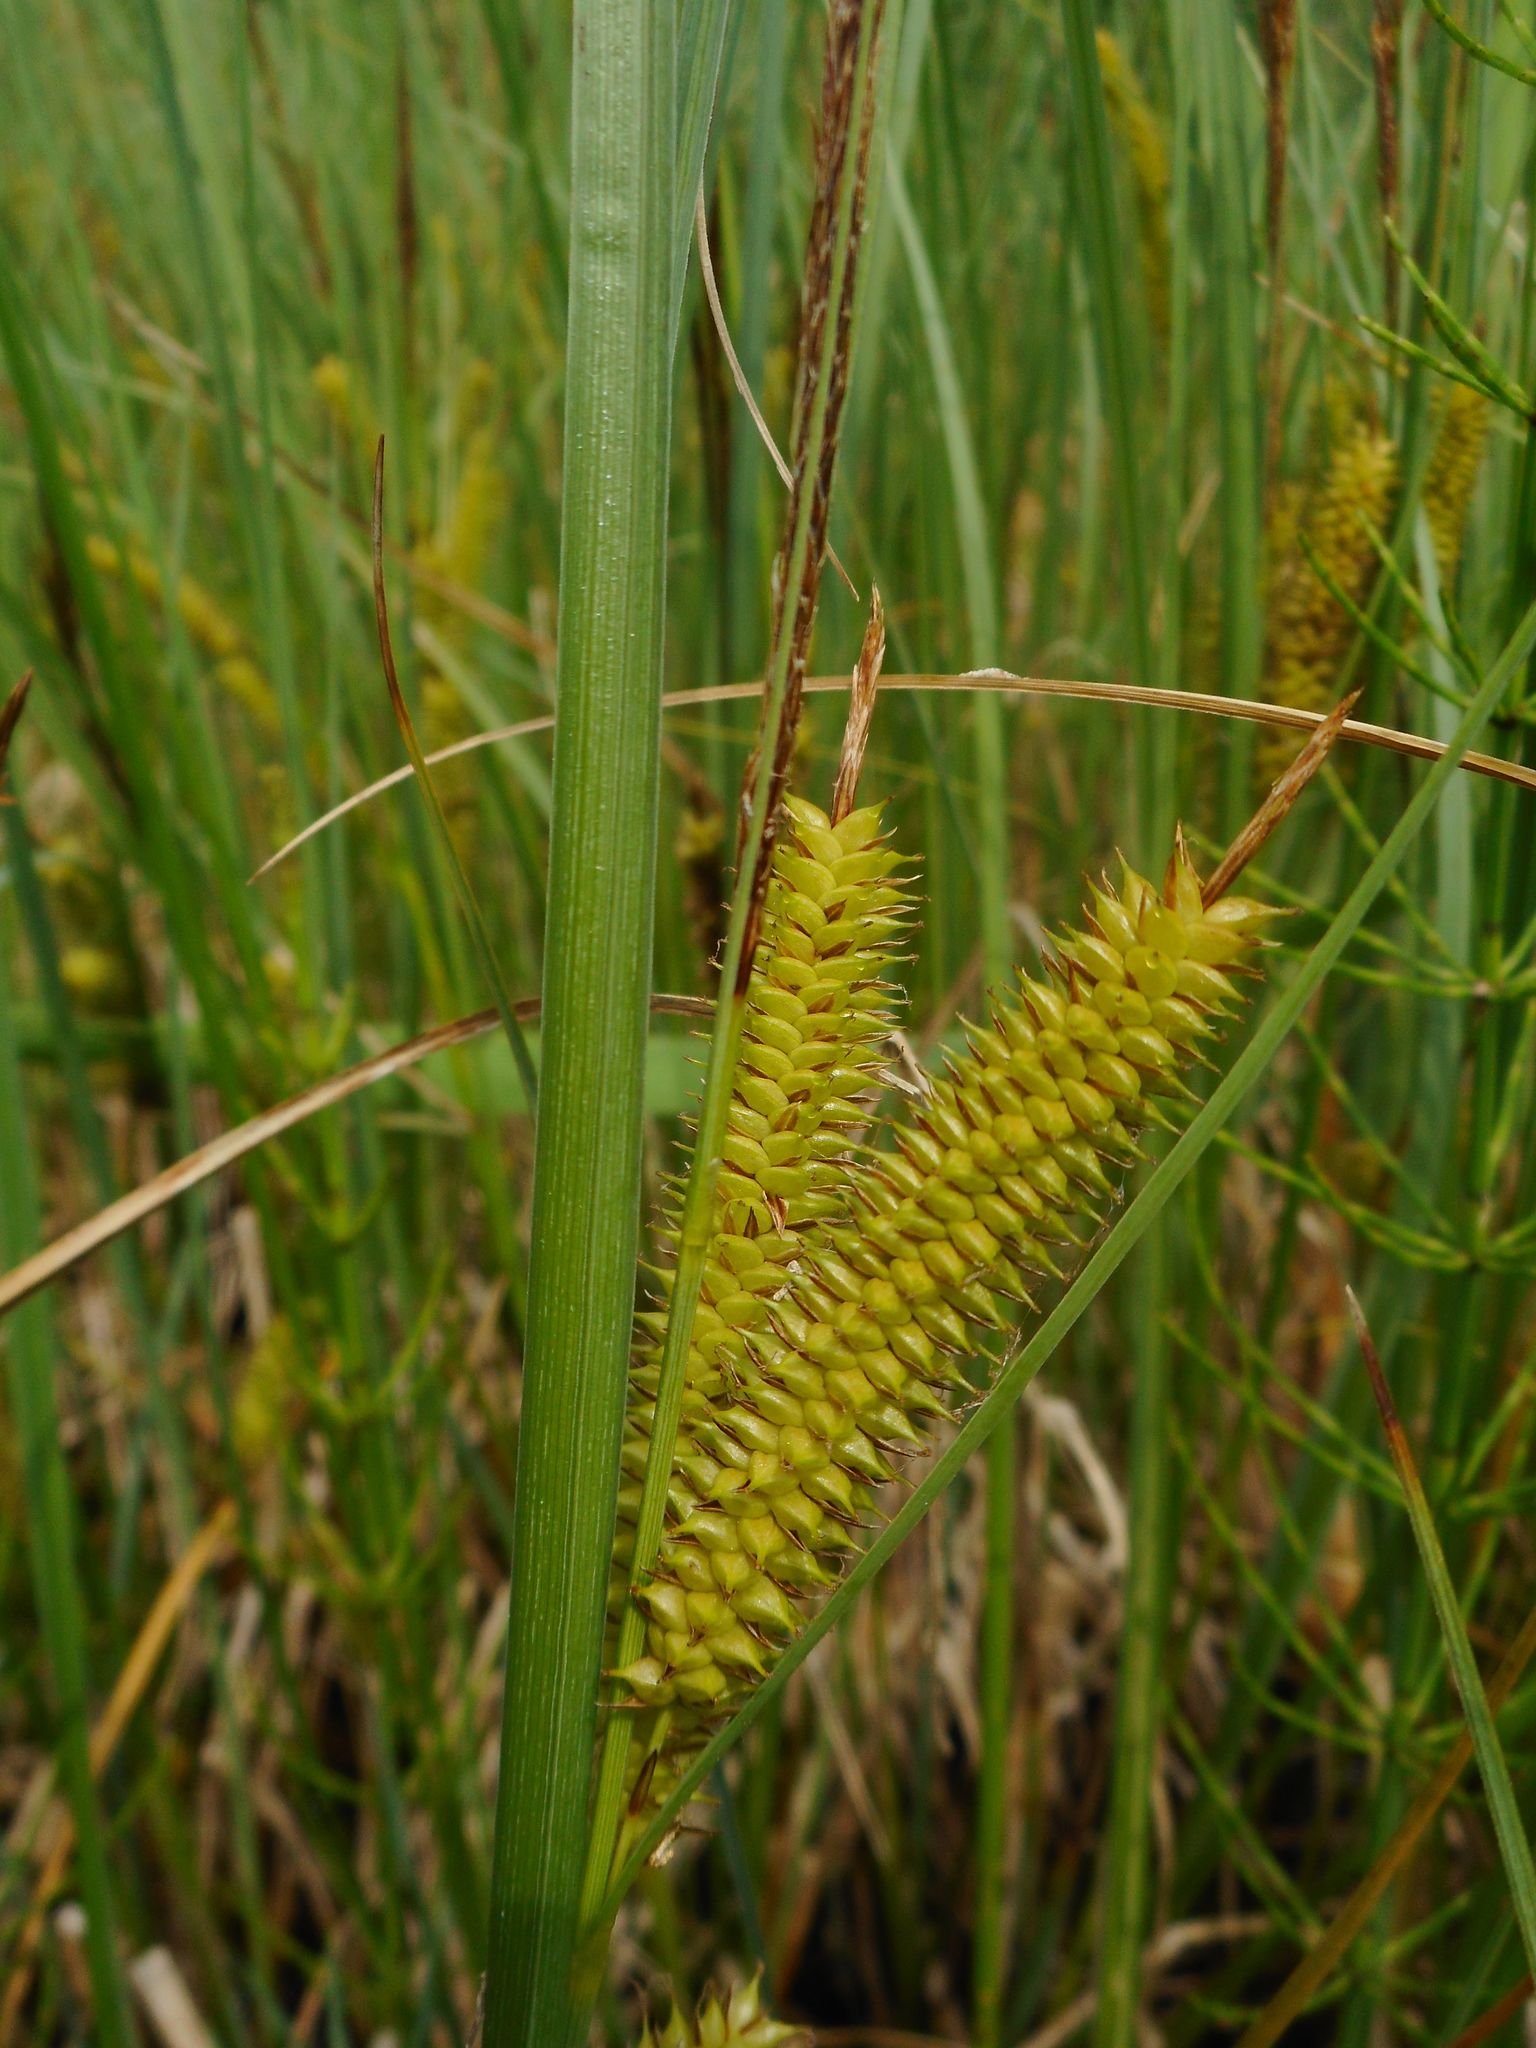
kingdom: Plantae
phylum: Tracheophyta
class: Liliopsida
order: Poales
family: Cyperaceae
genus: Carex
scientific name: Carex rostrata
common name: Bottle sedge
